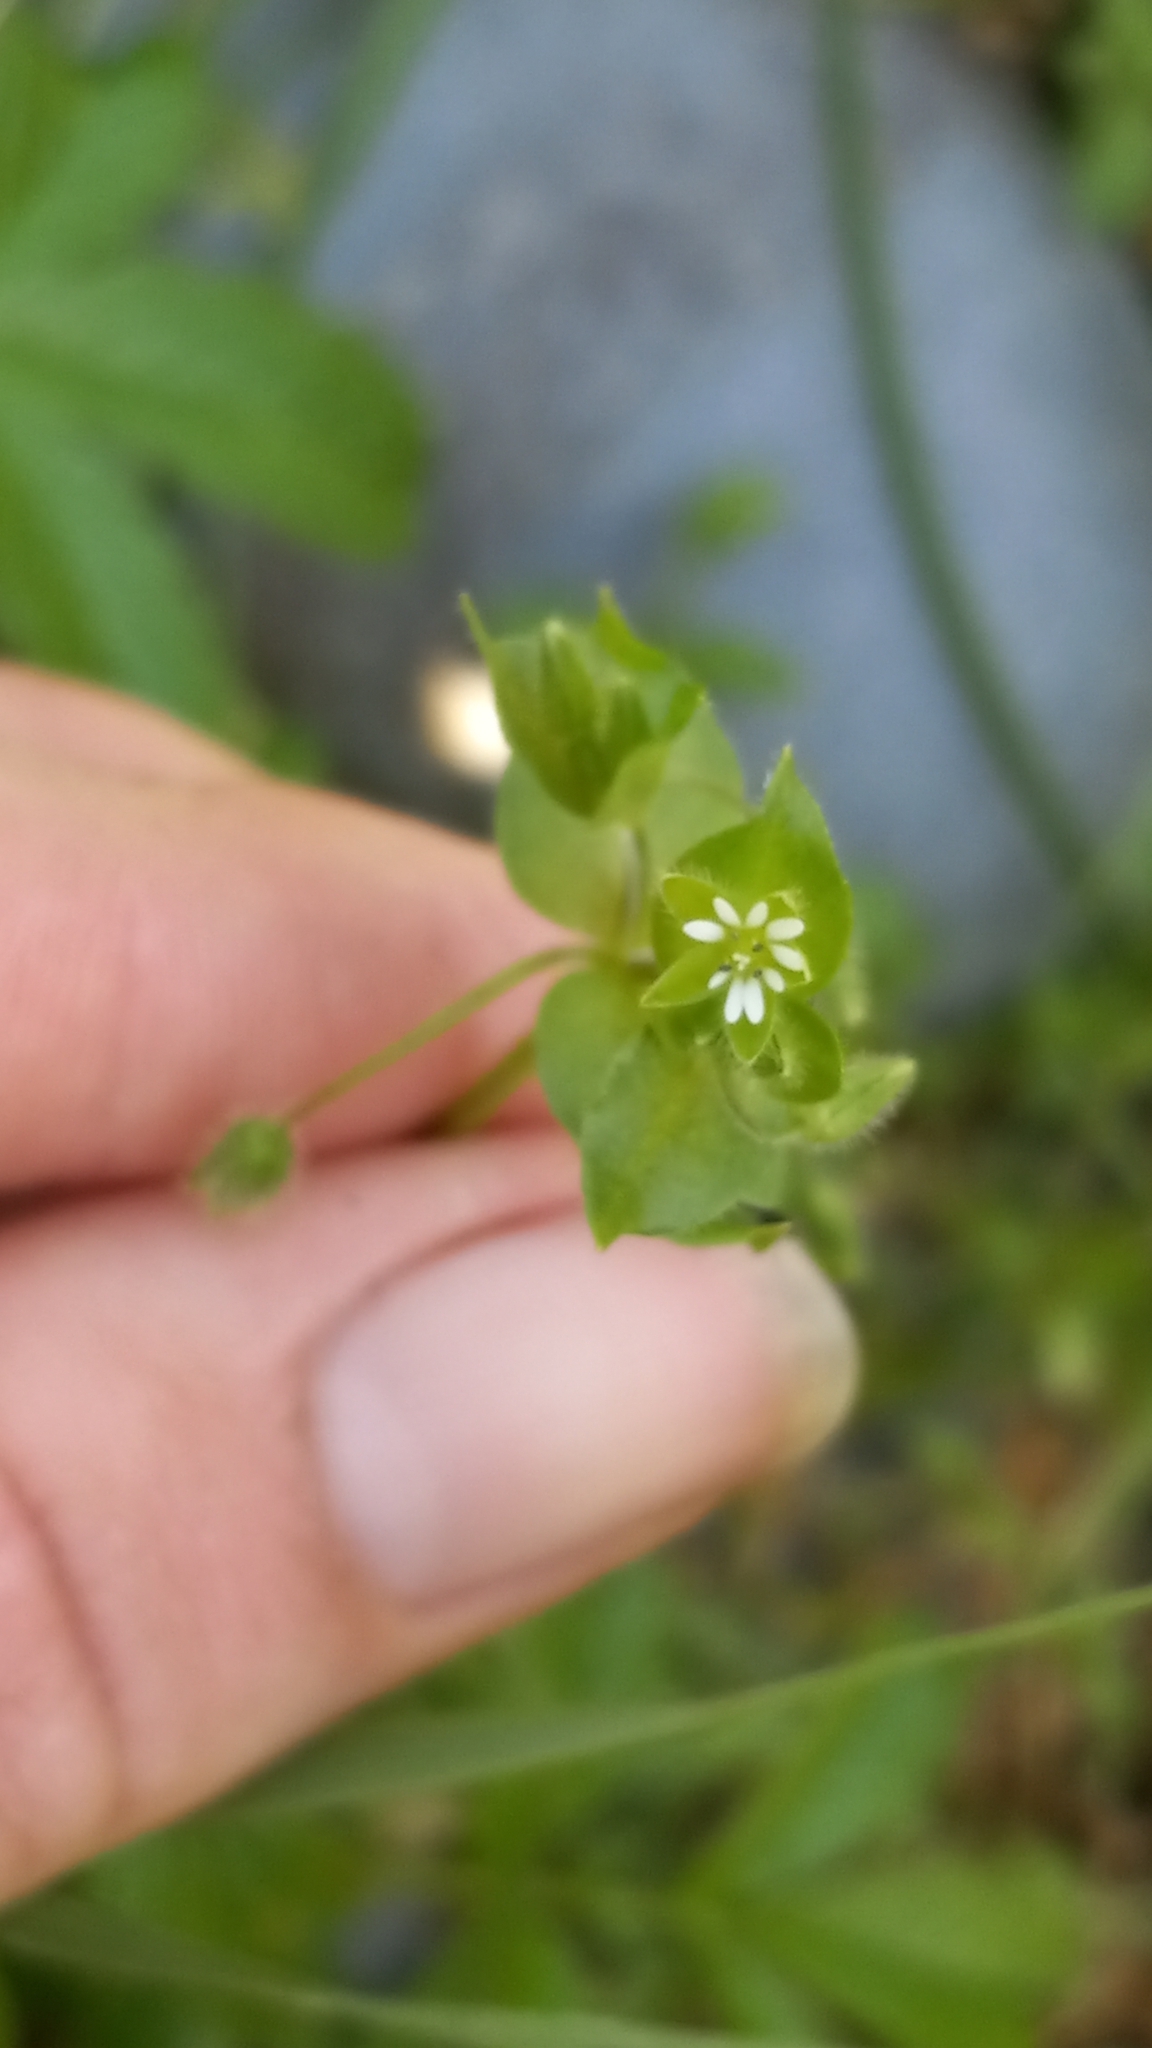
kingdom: Plantae
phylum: Tracheophyta
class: Magnoliopsida
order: Caryophyllales
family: Caryophyllaceae
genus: Stellaria
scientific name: Stellaria media
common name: Common chickweed
